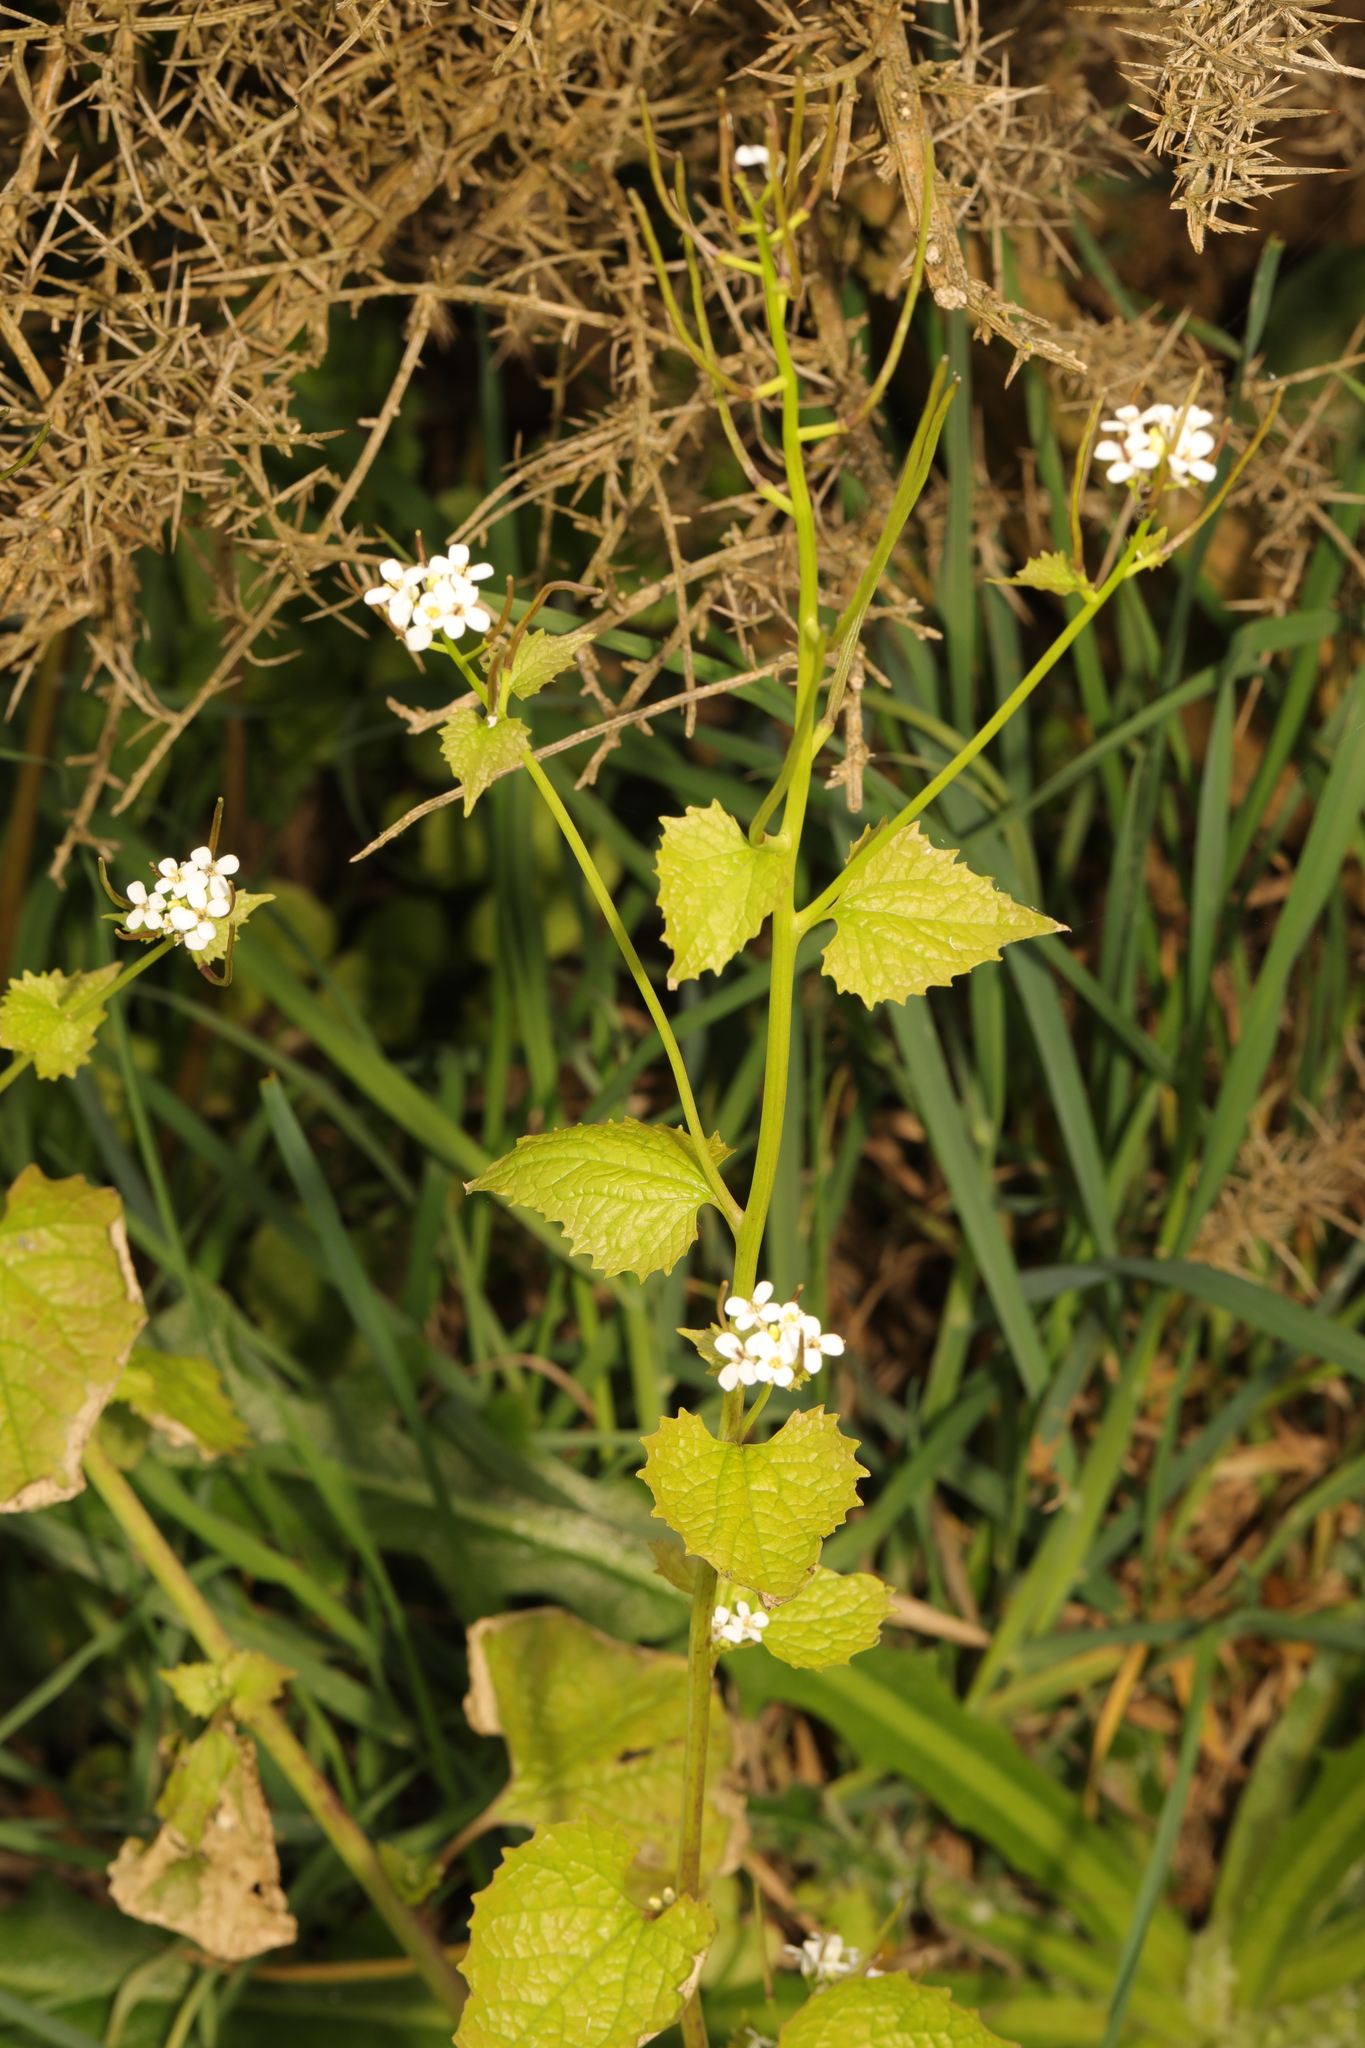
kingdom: Plantae
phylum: Tracheophyta
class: Magnoliopsida
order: Brassicales
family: Brassicaceae
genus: Alliaria
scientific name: Alliaria petiolata
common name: Garlic mustard
